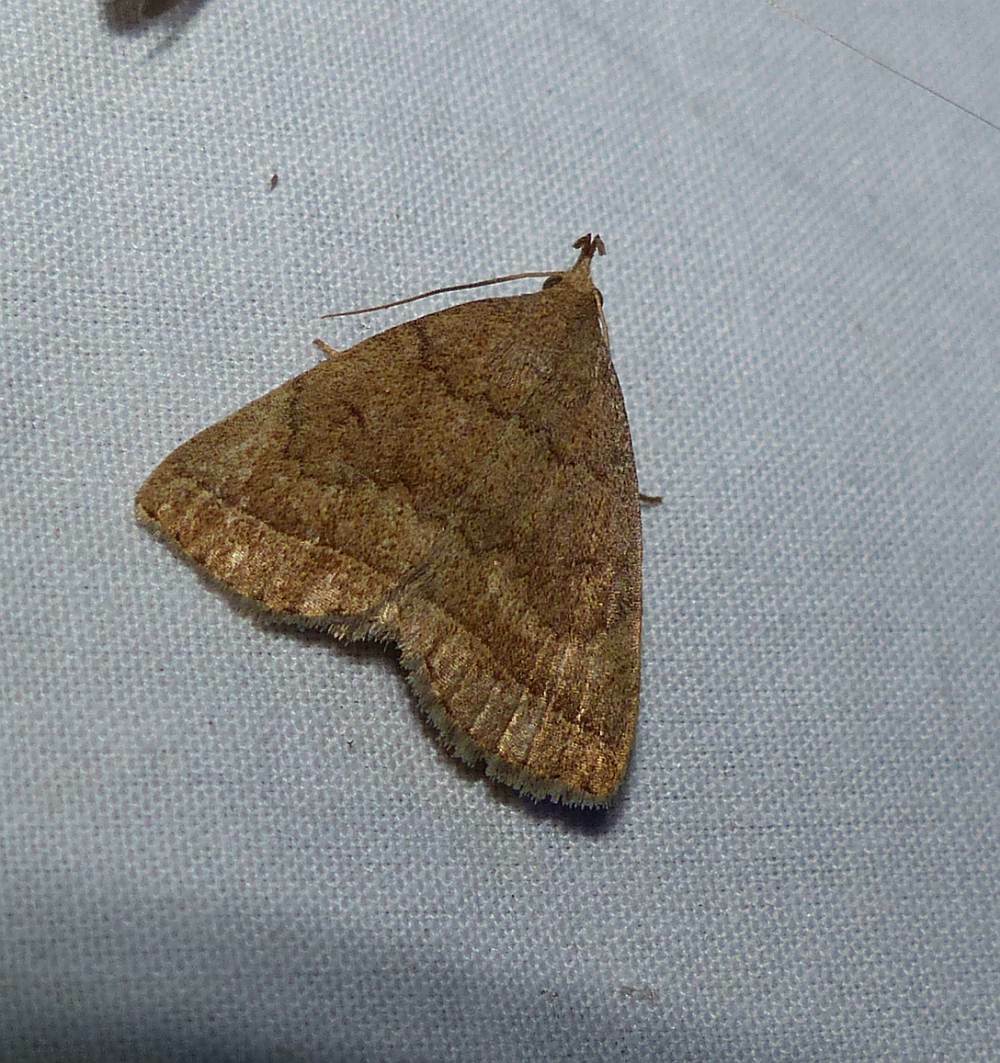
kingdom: Animalia
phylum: Arthropoda
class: Insecta
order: Lepidoptera
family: Erebidae
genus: Zanclognatha
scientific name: Zanclognatha jacchusalis
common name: Yellowish zanclognatha
